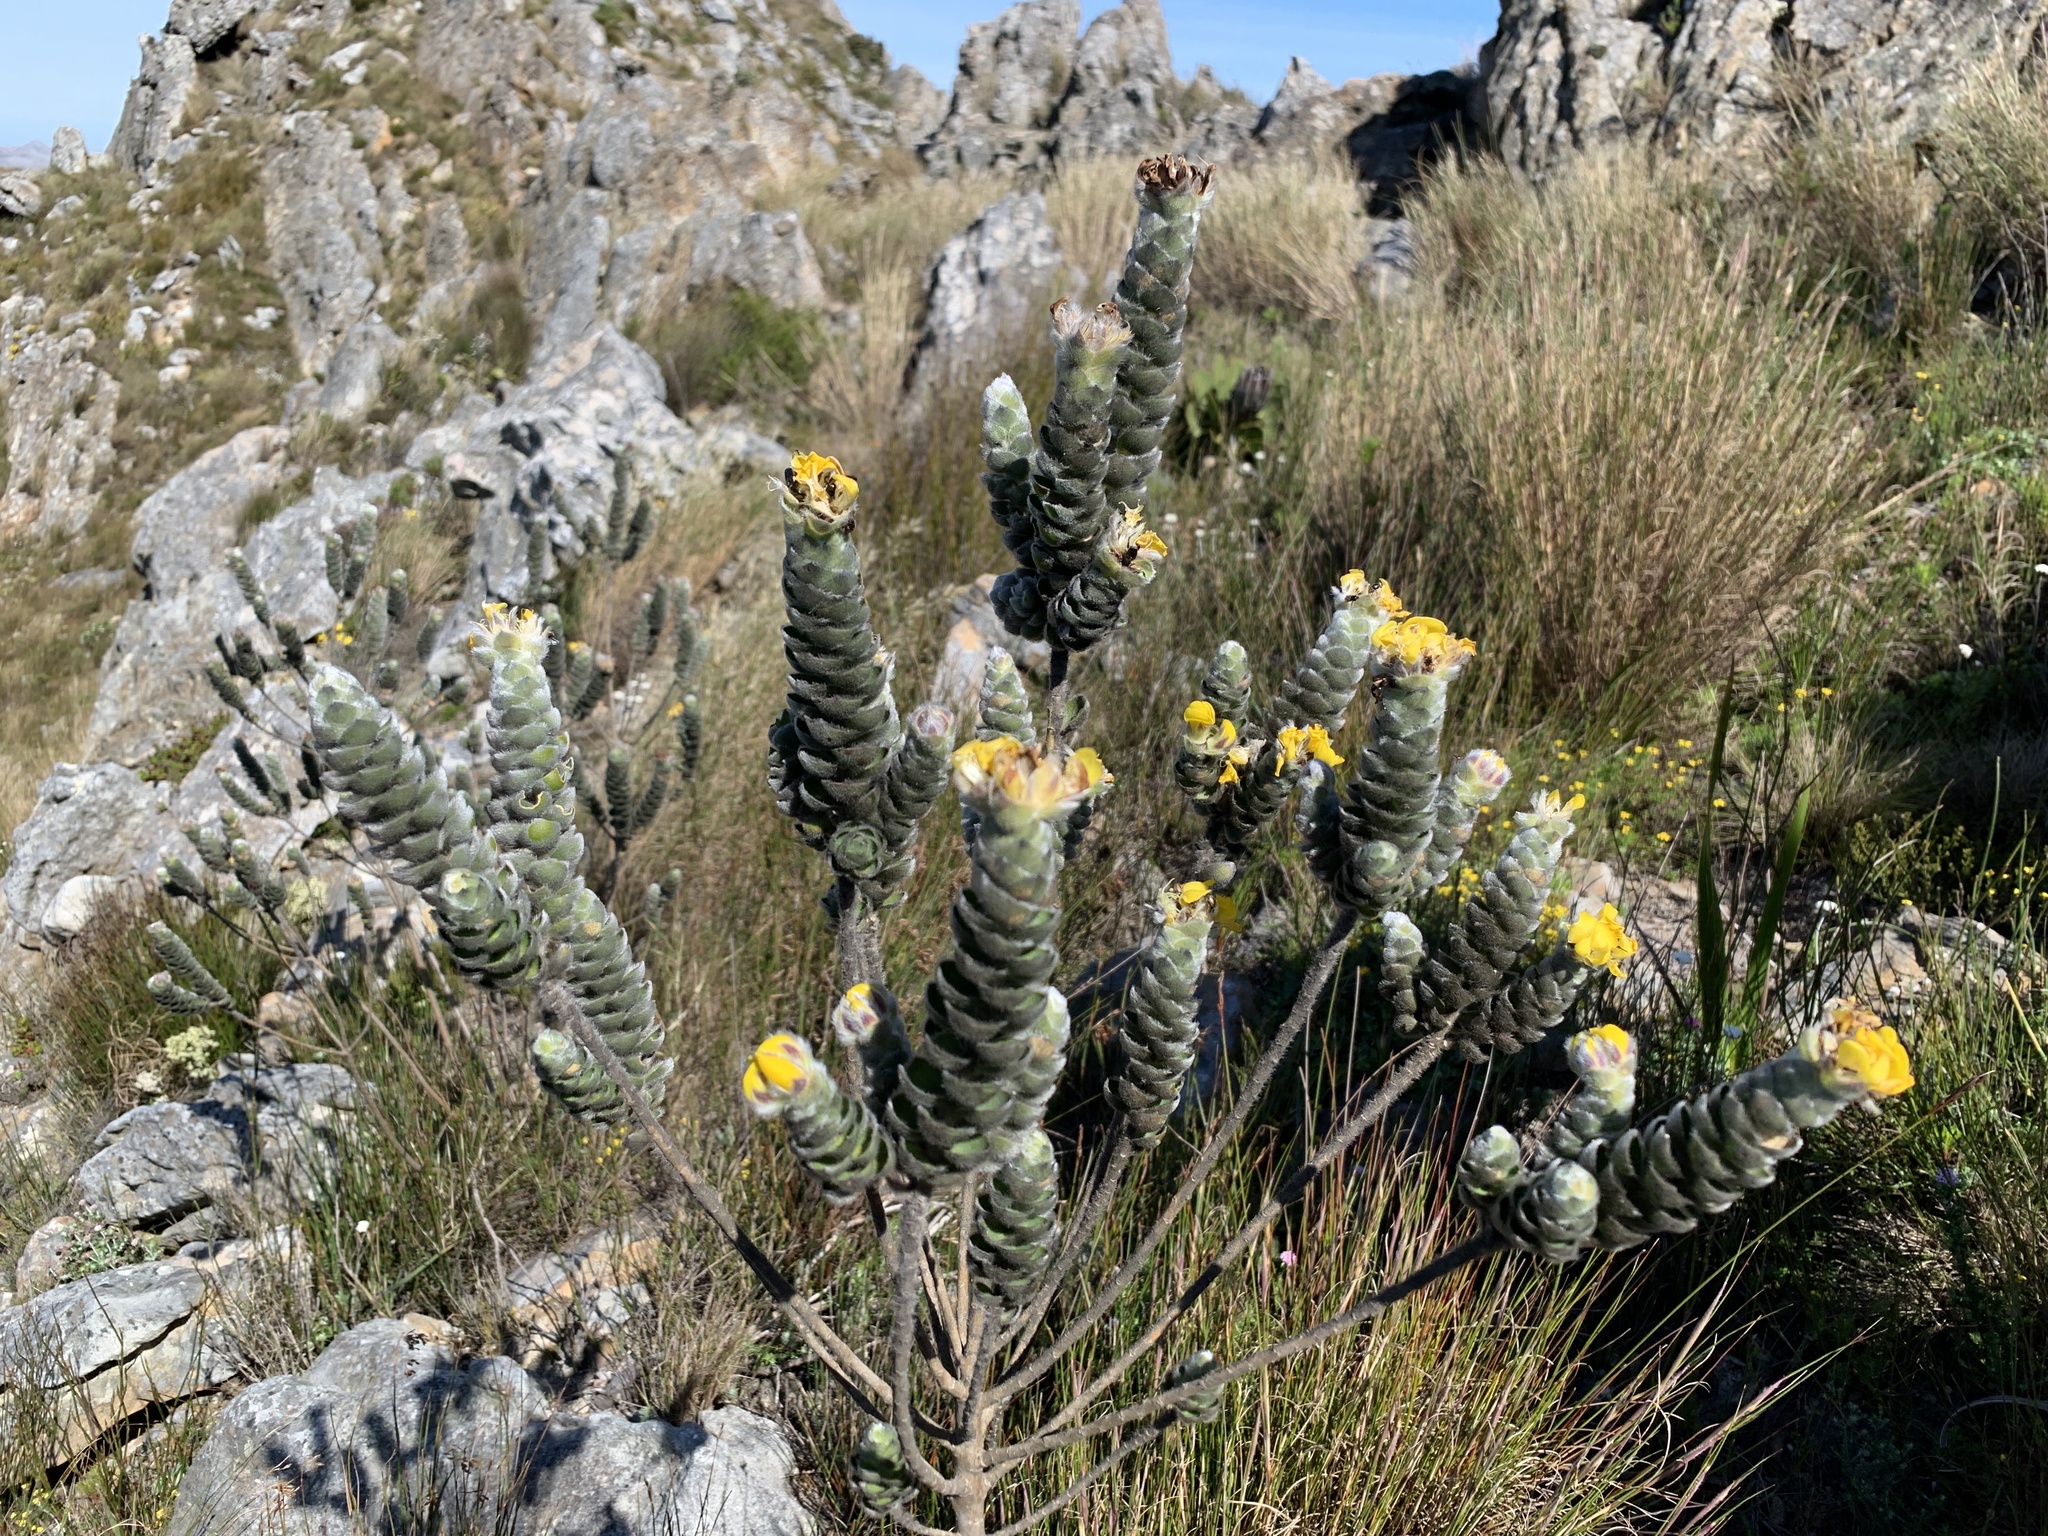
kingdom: Plantae
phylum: Tracheophyta
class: Magnoliopsida
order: Fabales
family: Fabaceae
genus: Liparia
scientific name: Liparia vestita
